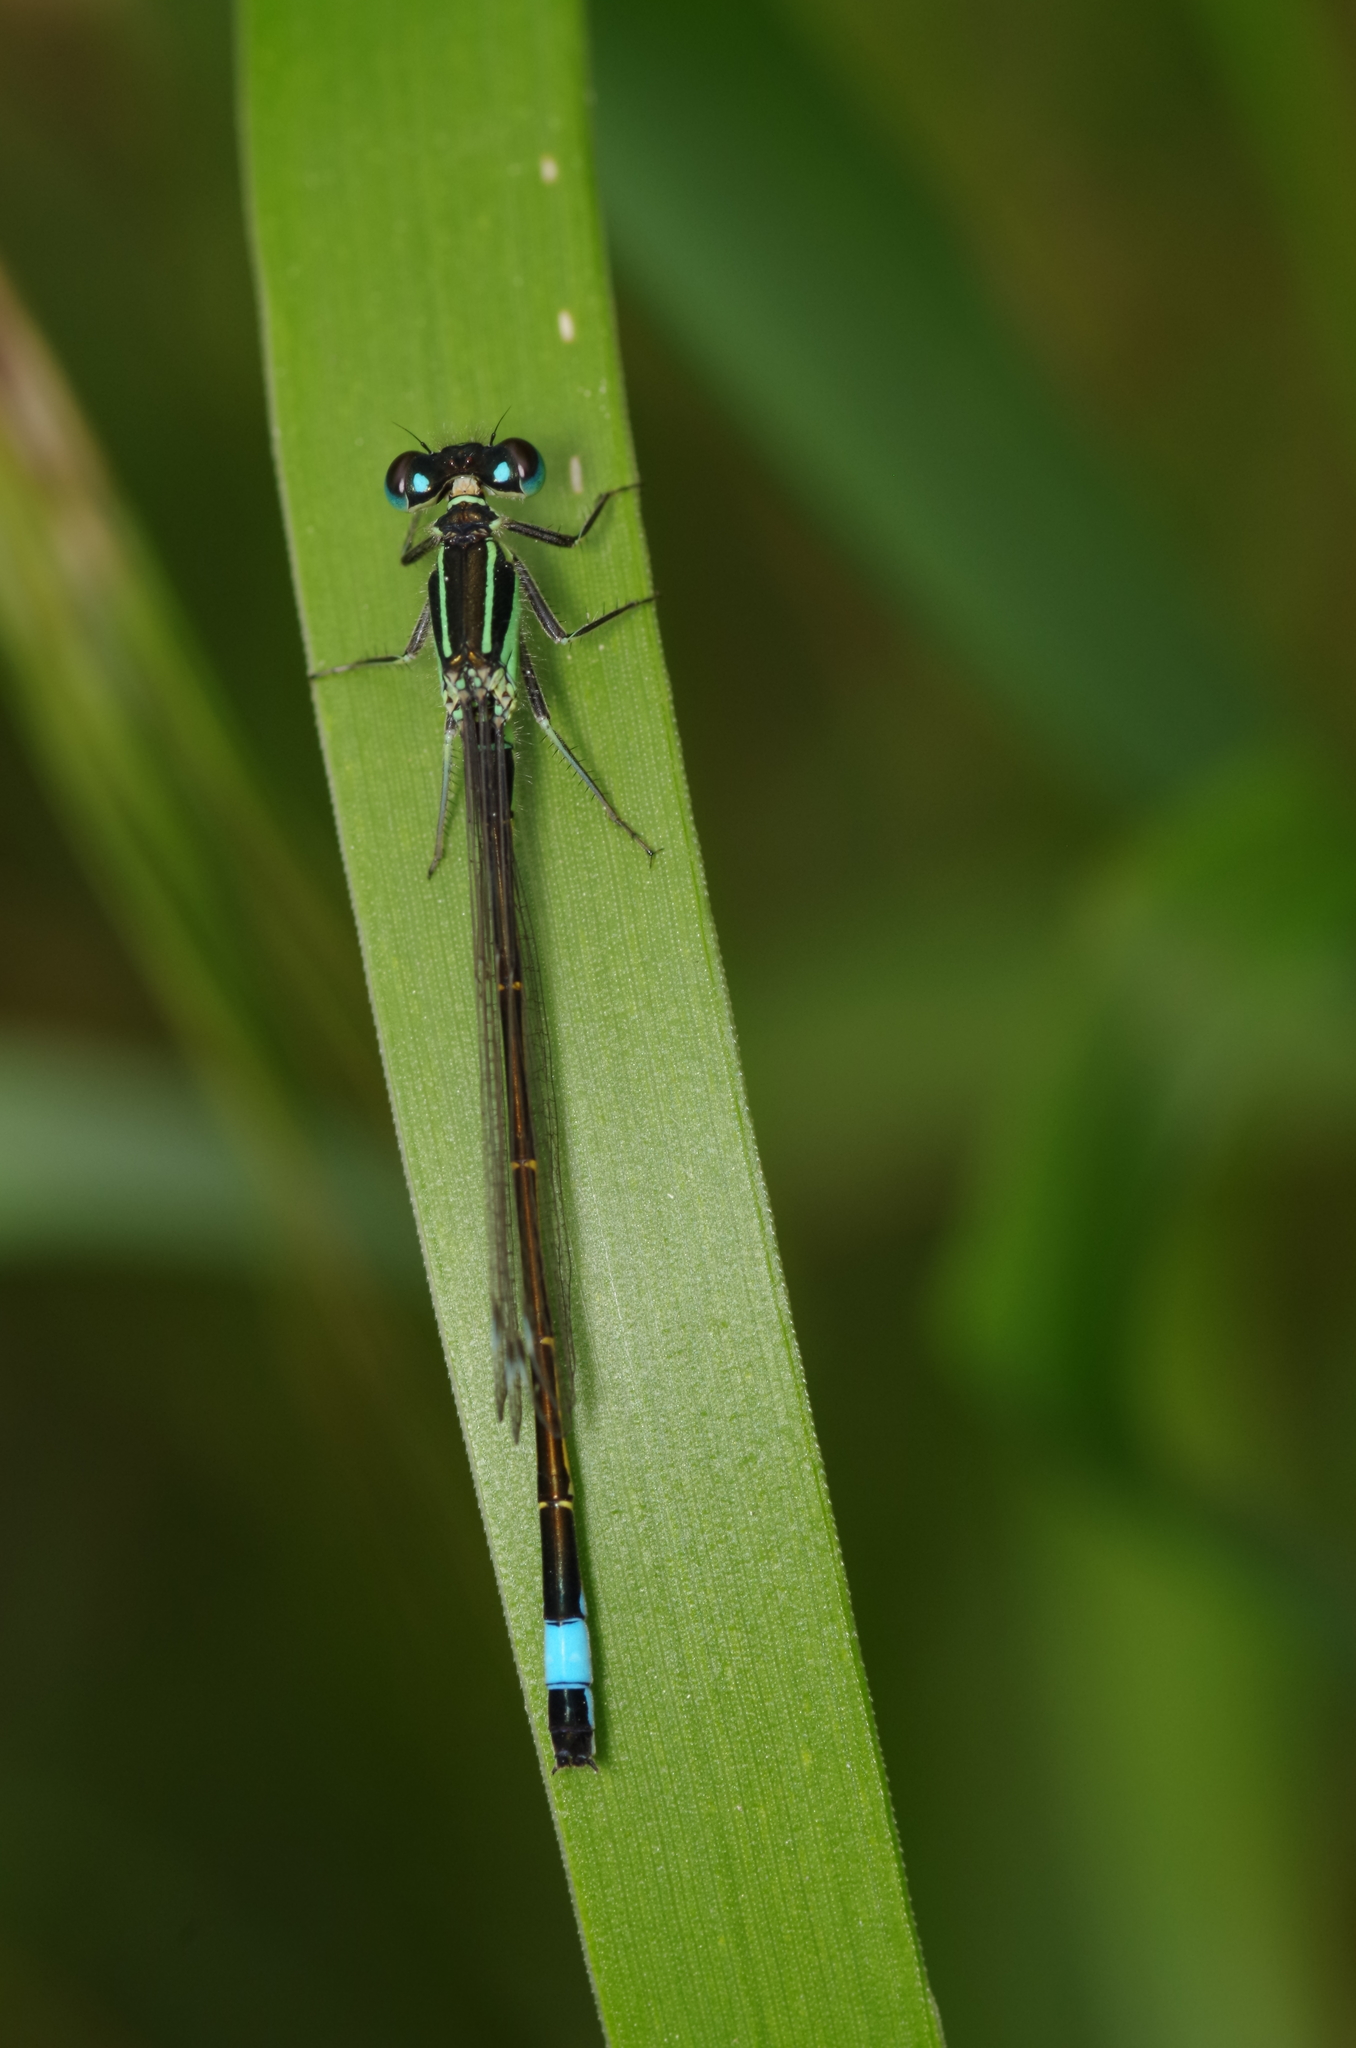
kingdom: Animalia
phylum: Arthropoda
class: Insecta
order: Odonata
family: Coenagrionidae
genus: Ischnura
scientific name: Ischnura elegans
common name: Blue-tailed damselfly
